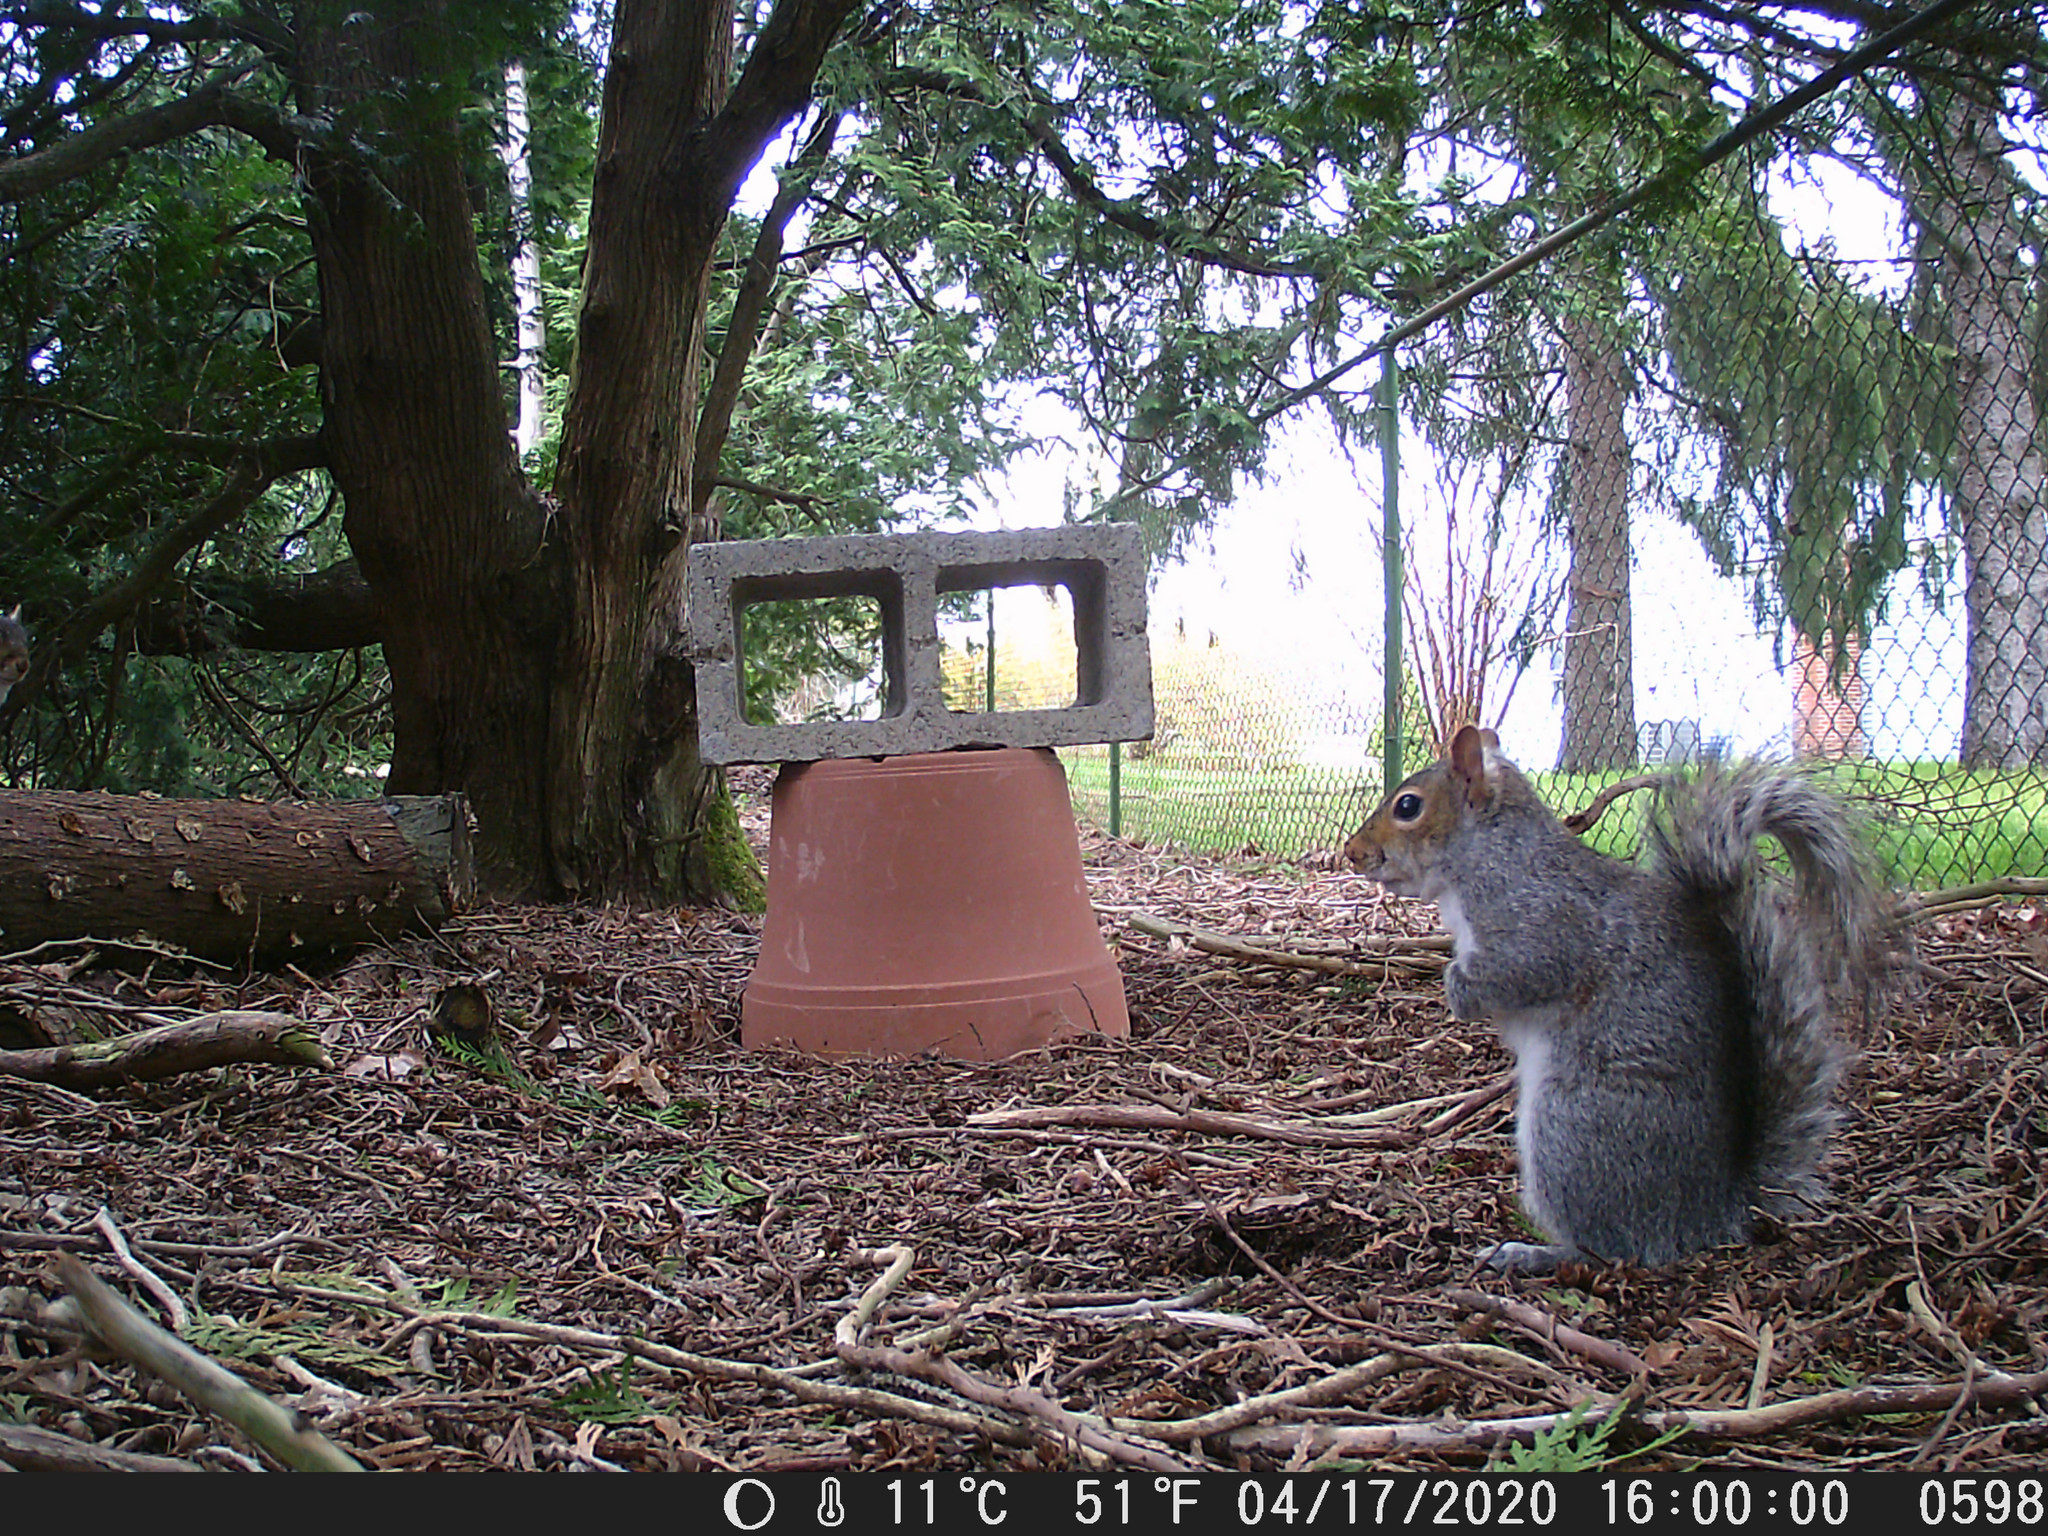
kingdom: Animalia
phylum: Chordata
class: Mammalia
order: Rodentia
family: Sciuridae
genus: Sciurus
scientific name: Sciurus carolinensis
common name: Eastern gray squirrel
